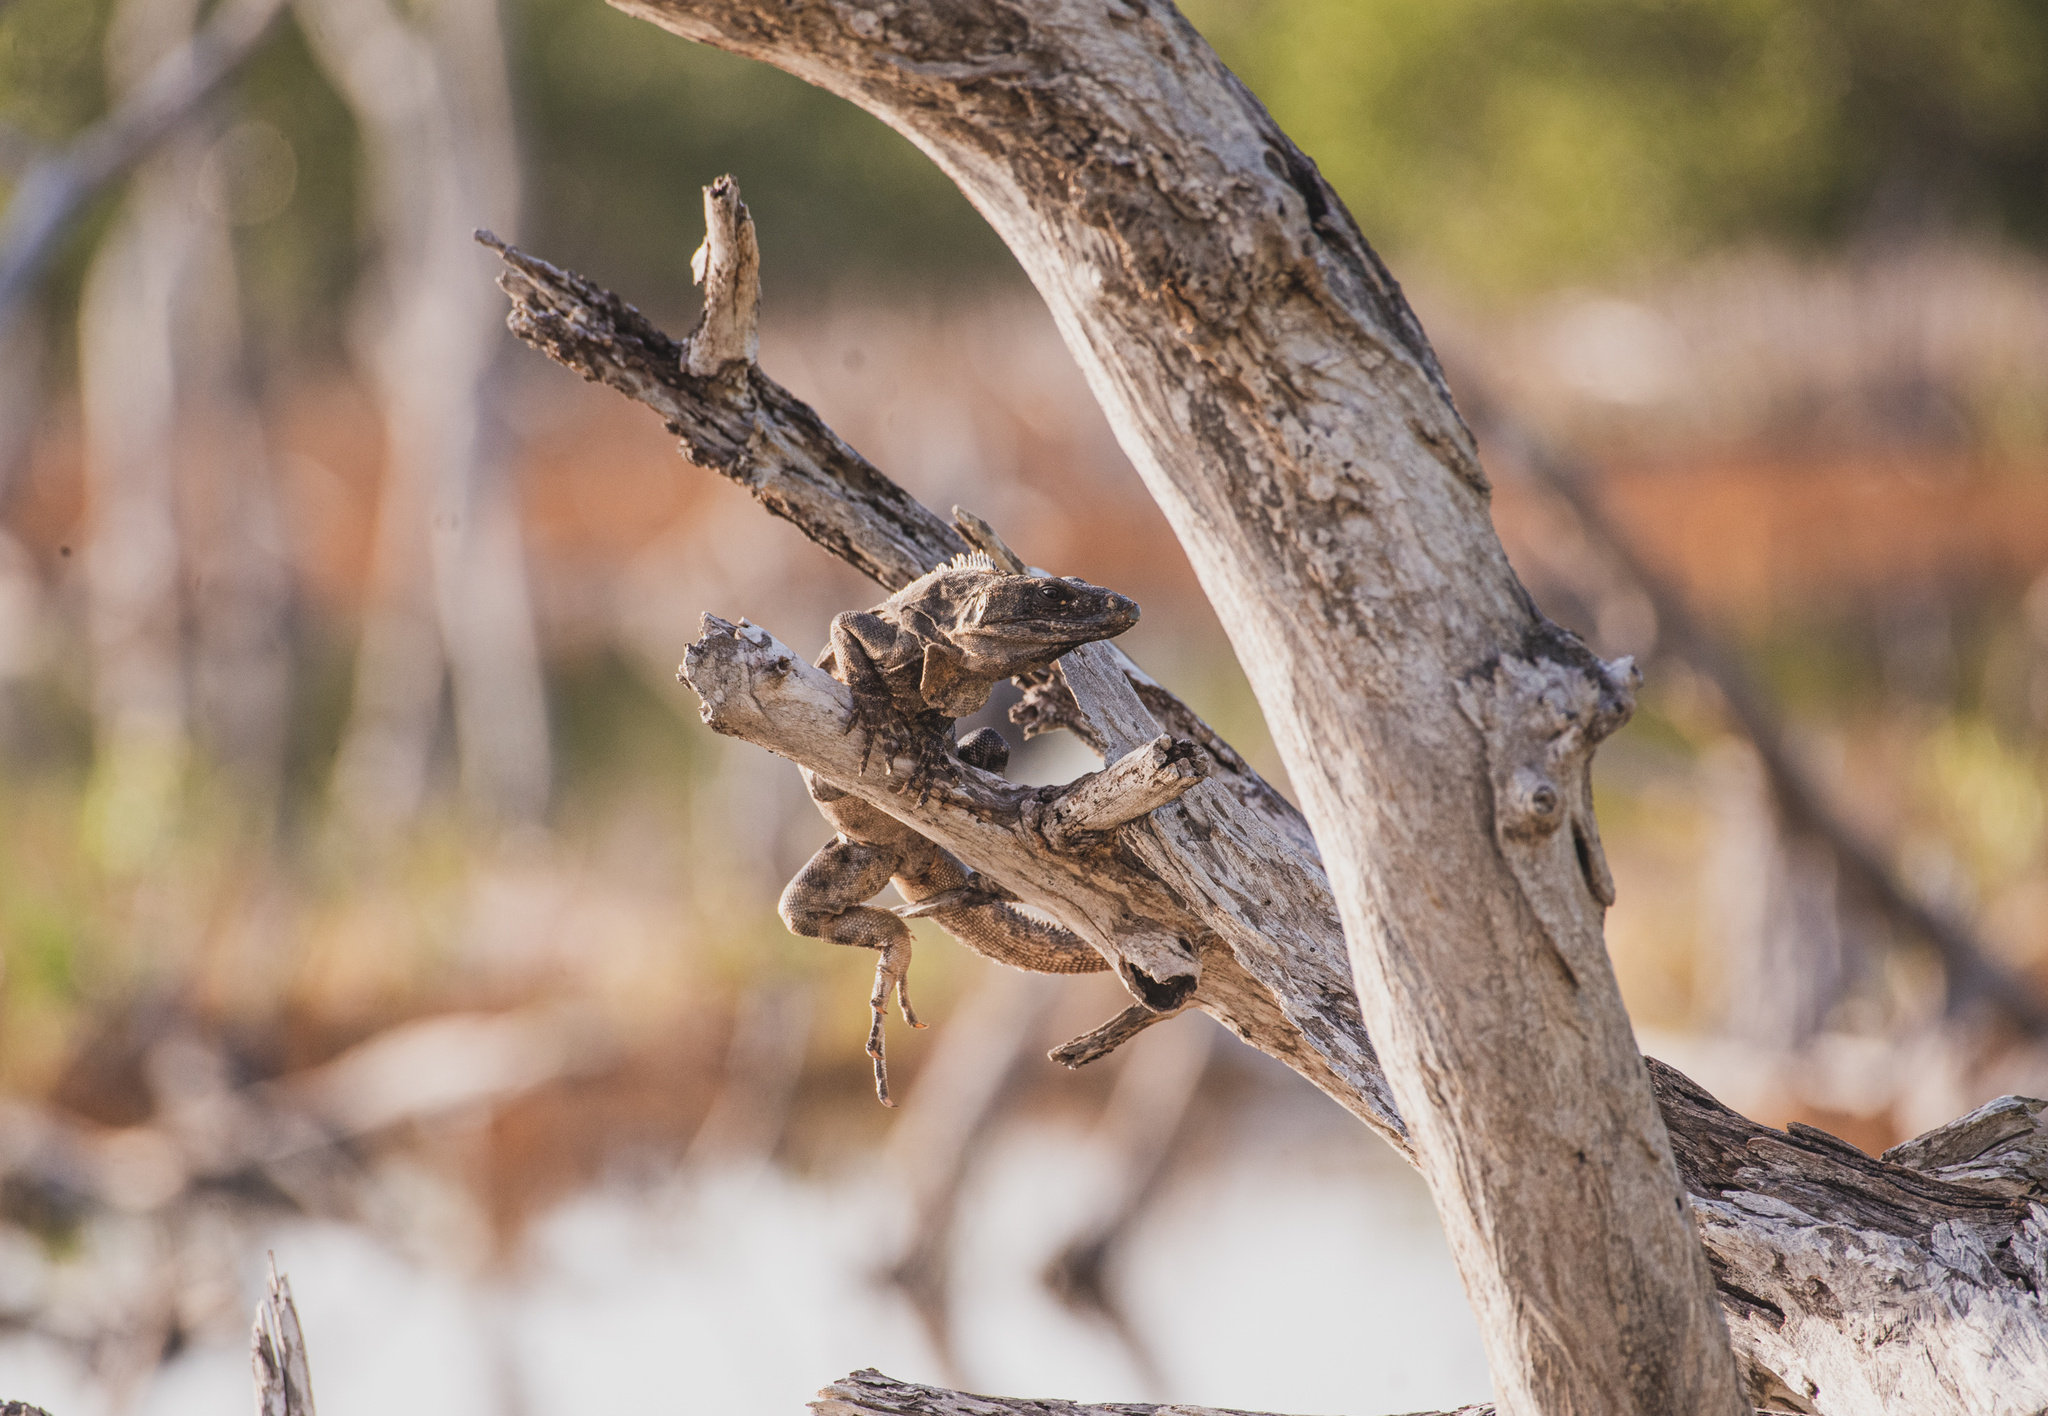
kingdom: Animalia
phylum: Chordata
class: Squamata
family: Iguanidae
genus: Ctenosaura
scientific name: Ctenosaura similis
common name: Black spiny-tailed iguana
